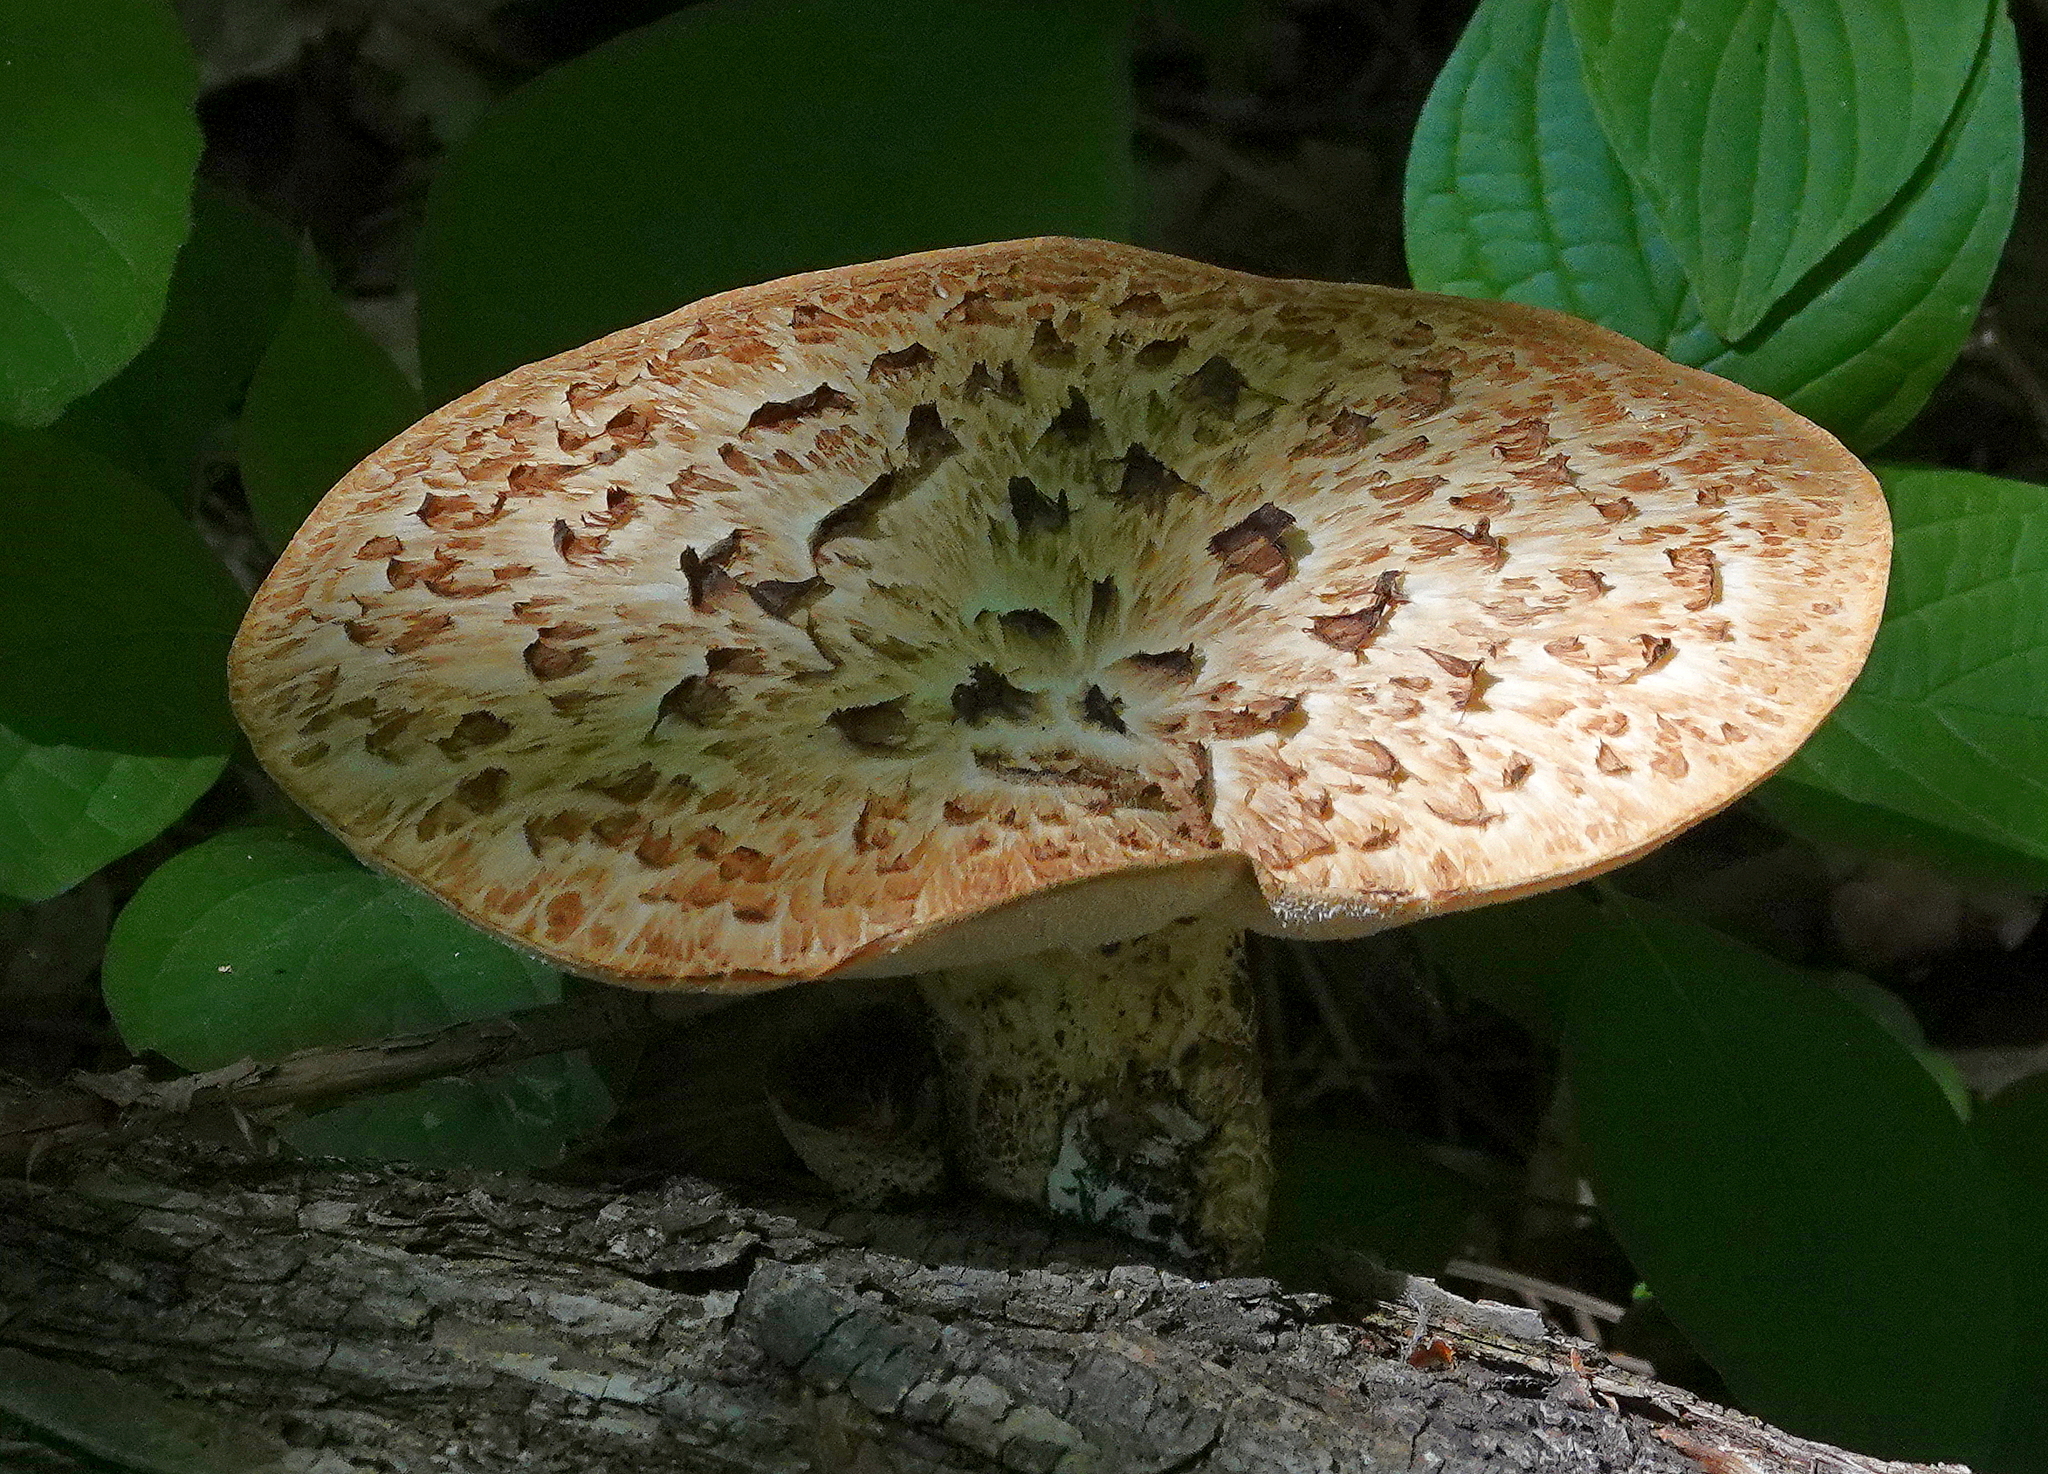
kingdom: Fungi
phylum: Basidiomycota
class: Agaricomycetes
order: Polyporales
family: Polyporaceae
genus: Cerioporus
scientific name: Cerioporus squamosus
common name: Dryad's saddle
